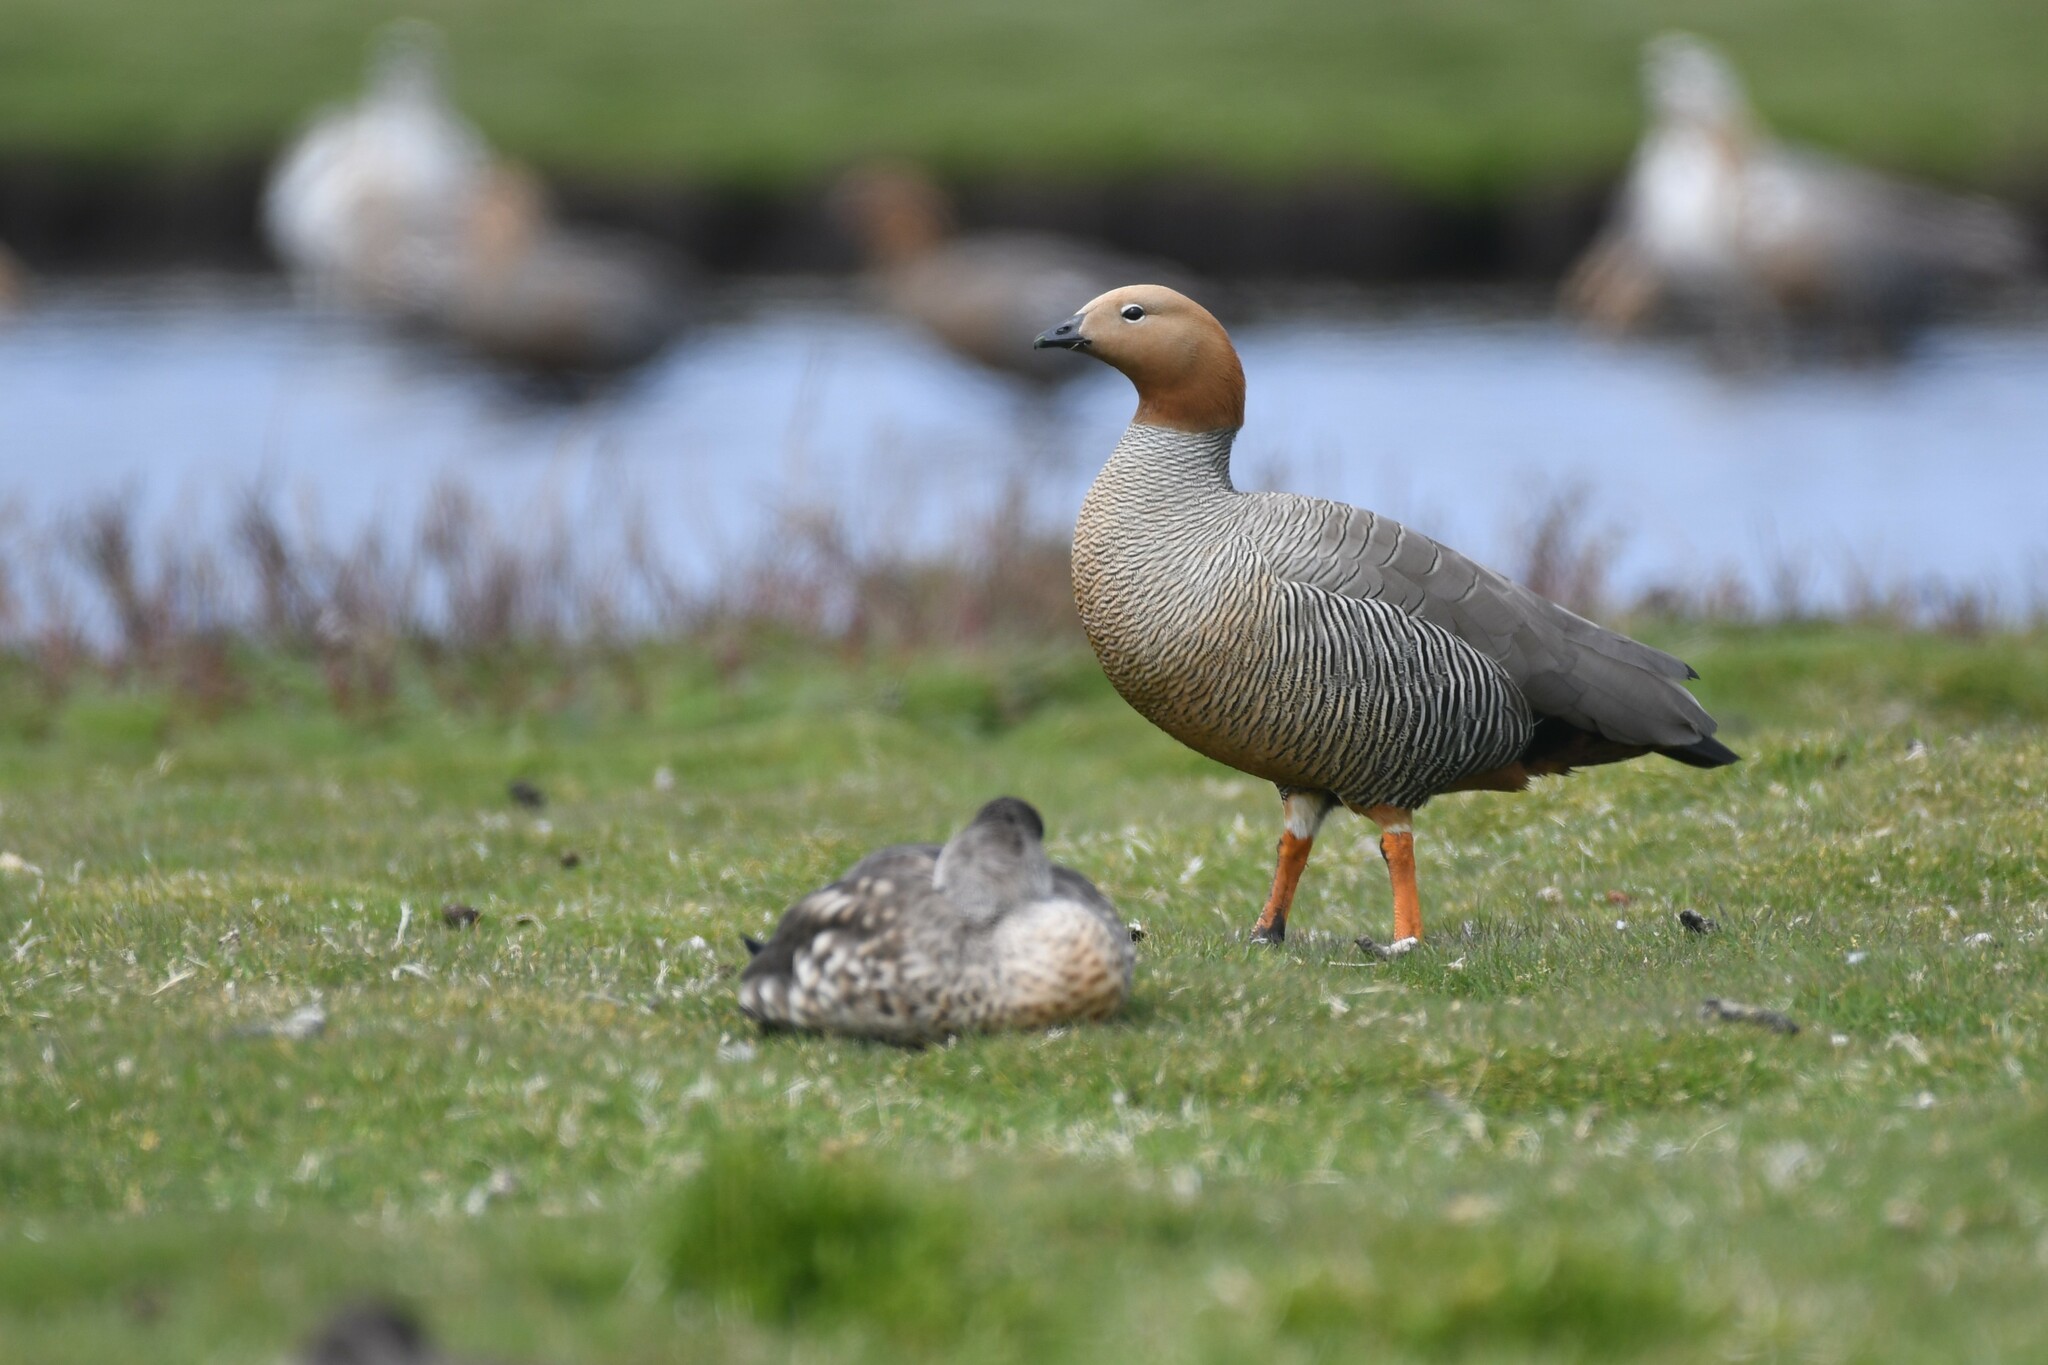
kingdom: Animalia
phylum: Chordata
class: Aves
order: Anseriformes
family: Anatidae
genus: Chloephaga
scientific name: Chloephaga rubidiceps
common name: Ruddy-headed goose
